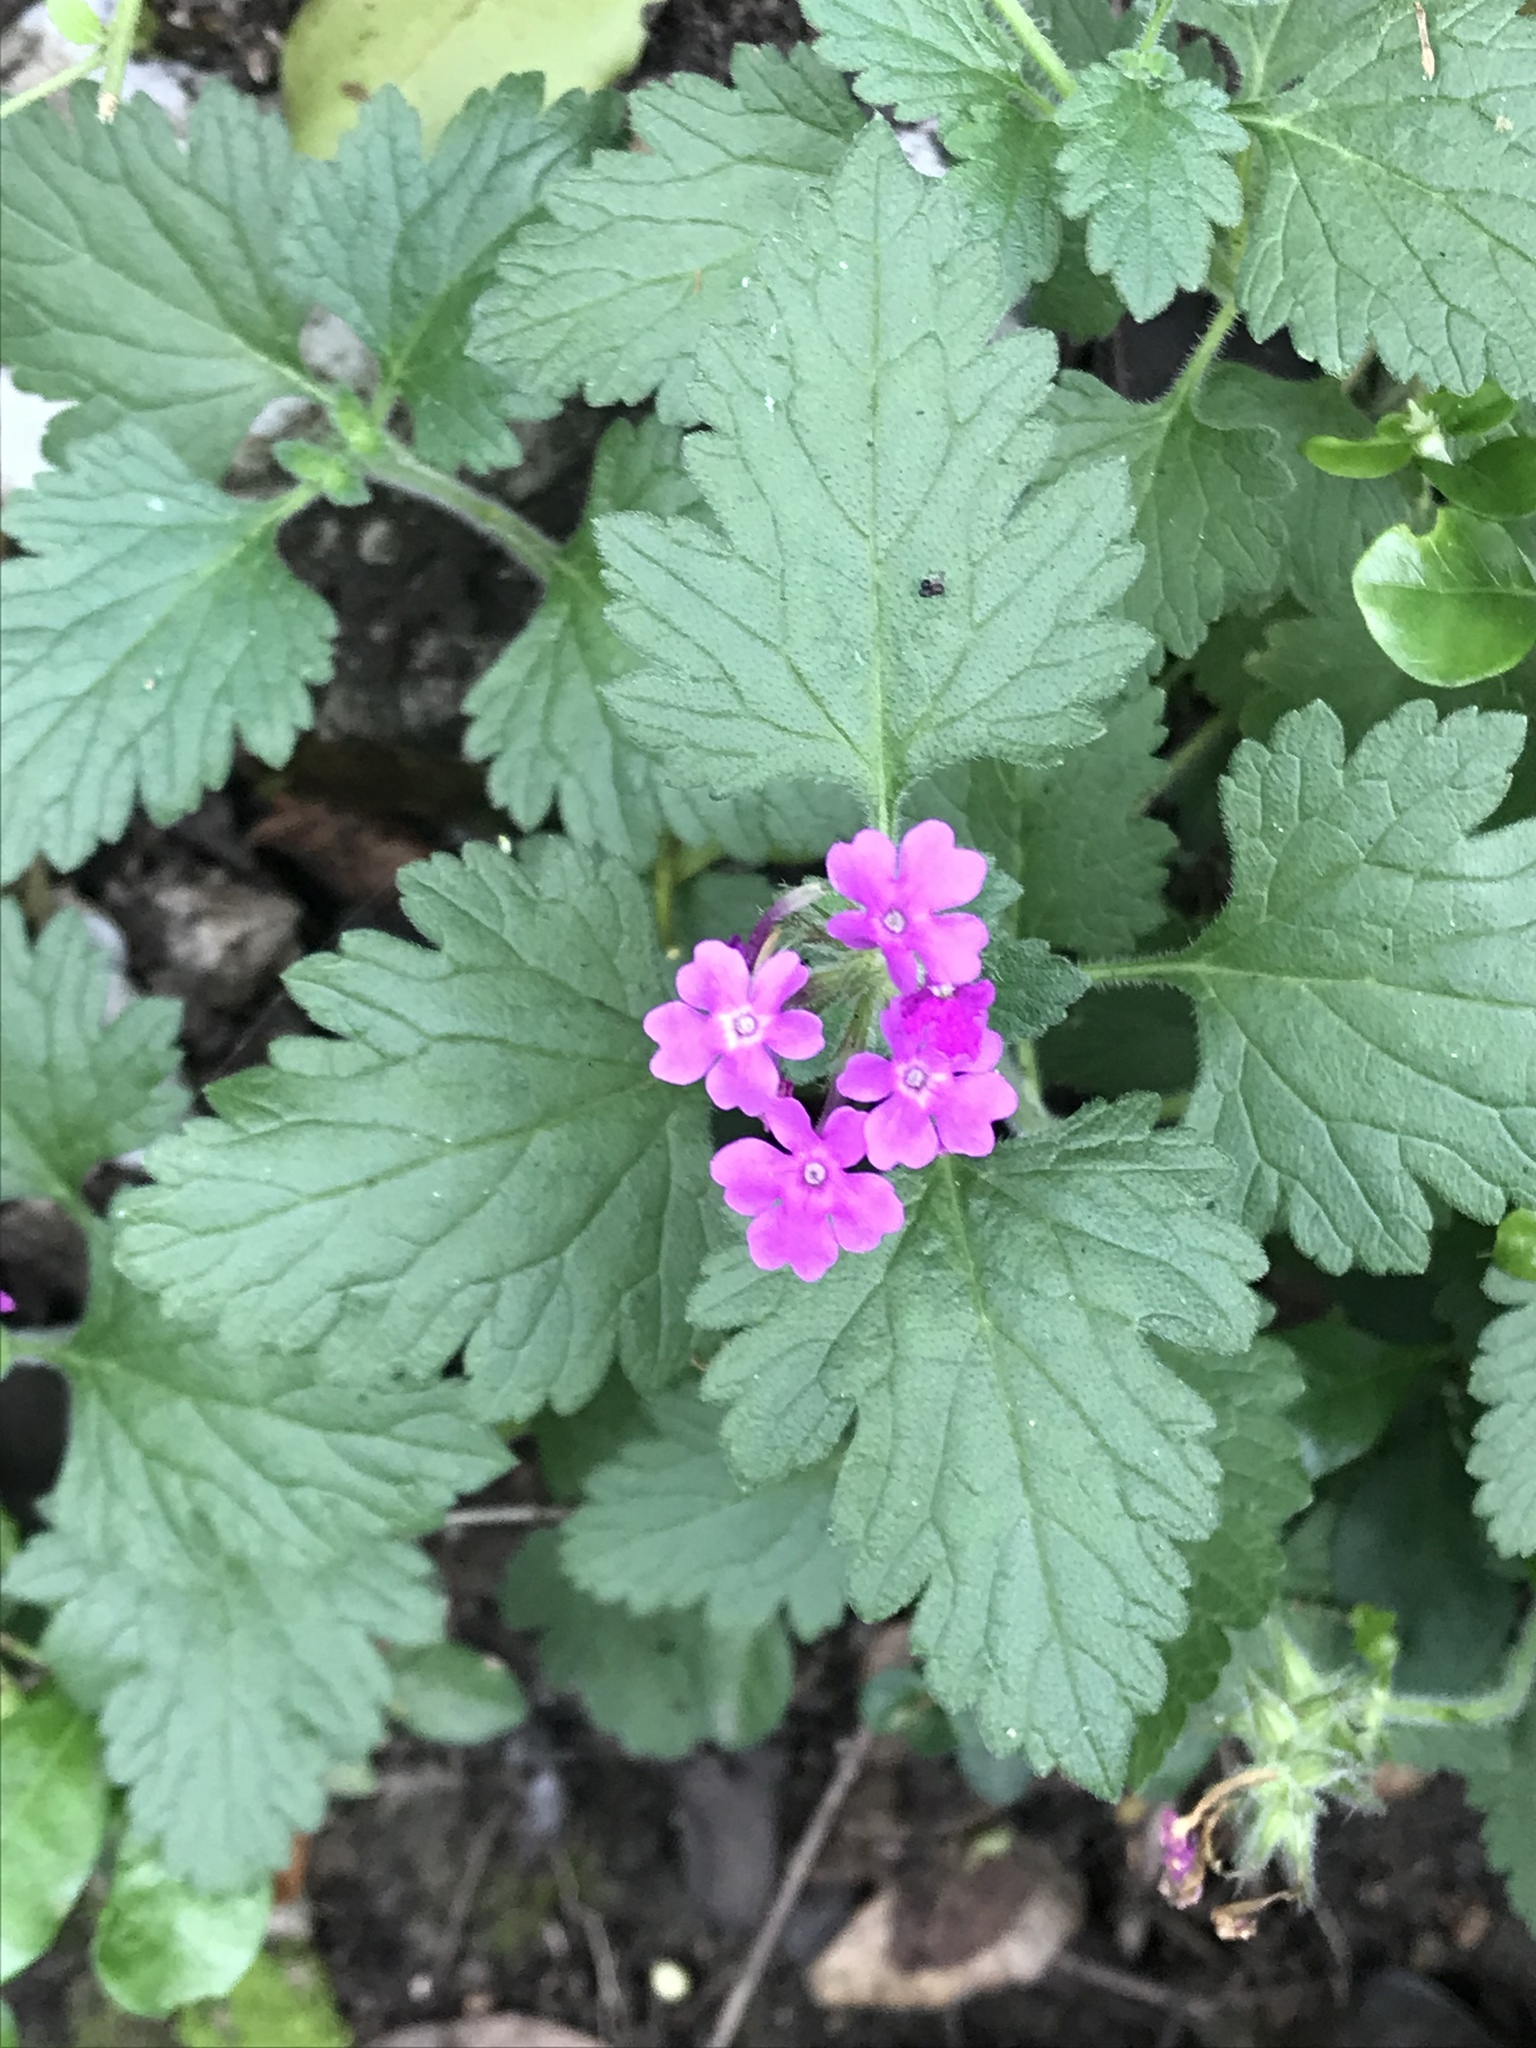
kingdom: Plantae
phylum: Tracheophyta
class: Magnoliopsida
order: Lamiales
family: Verbenaceae
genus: Verbena
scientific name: Verbena canadensis
